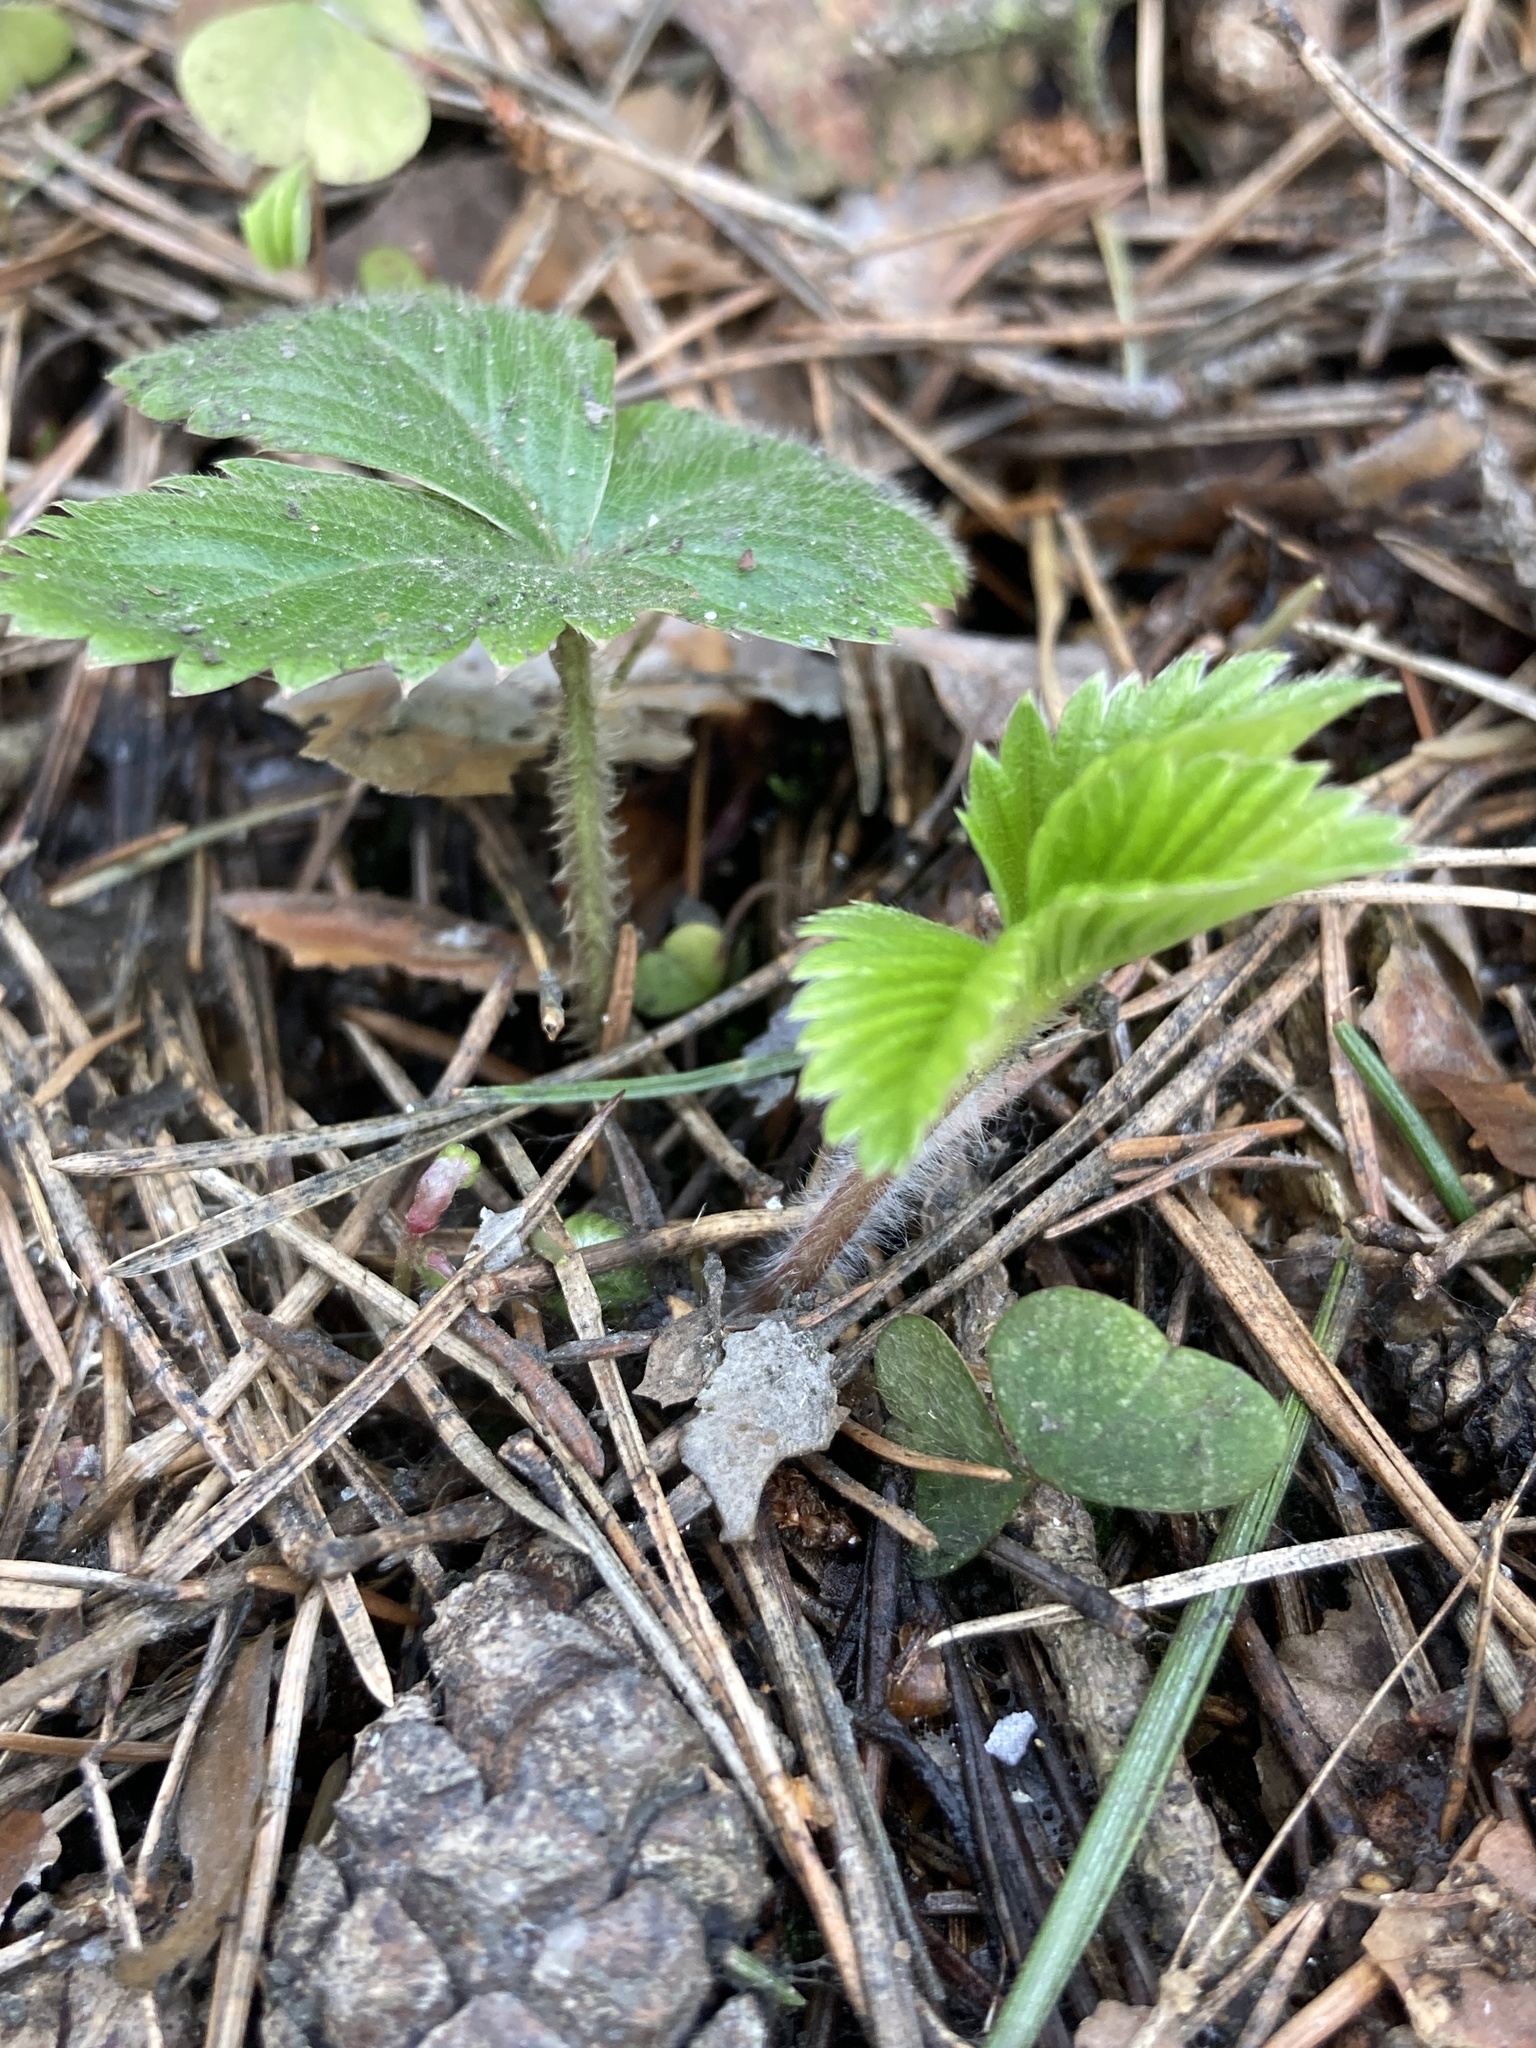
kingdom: Plantae
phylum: Tracheophyta
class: Magnoliopsida
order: Rosales
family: Rosaceae
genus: Fragaria
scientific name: Fragaria vesca
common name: Wild strawberry
